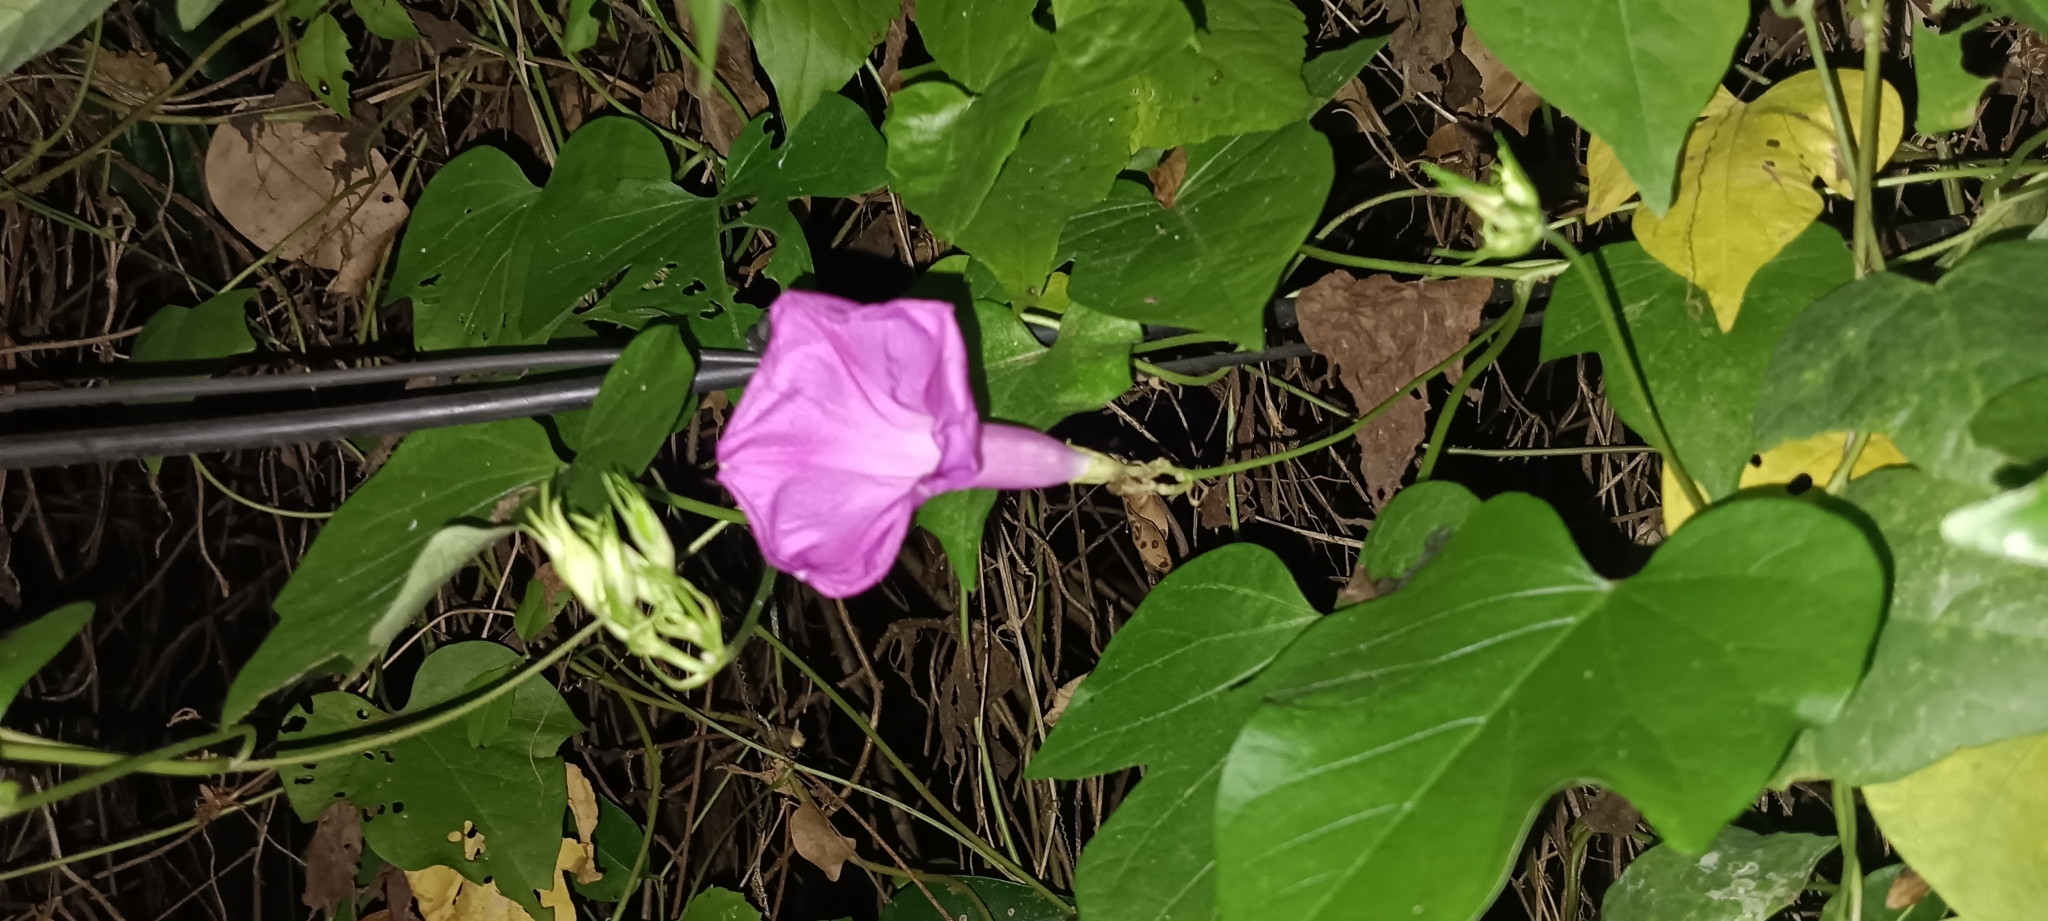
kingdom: Plantae
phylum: Tracheophyta
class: Magnoliopsida
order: Solanales
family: Convolvulaceae
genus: Ipomoea
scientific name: Ipomoea indica
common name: Blue dawnflower
